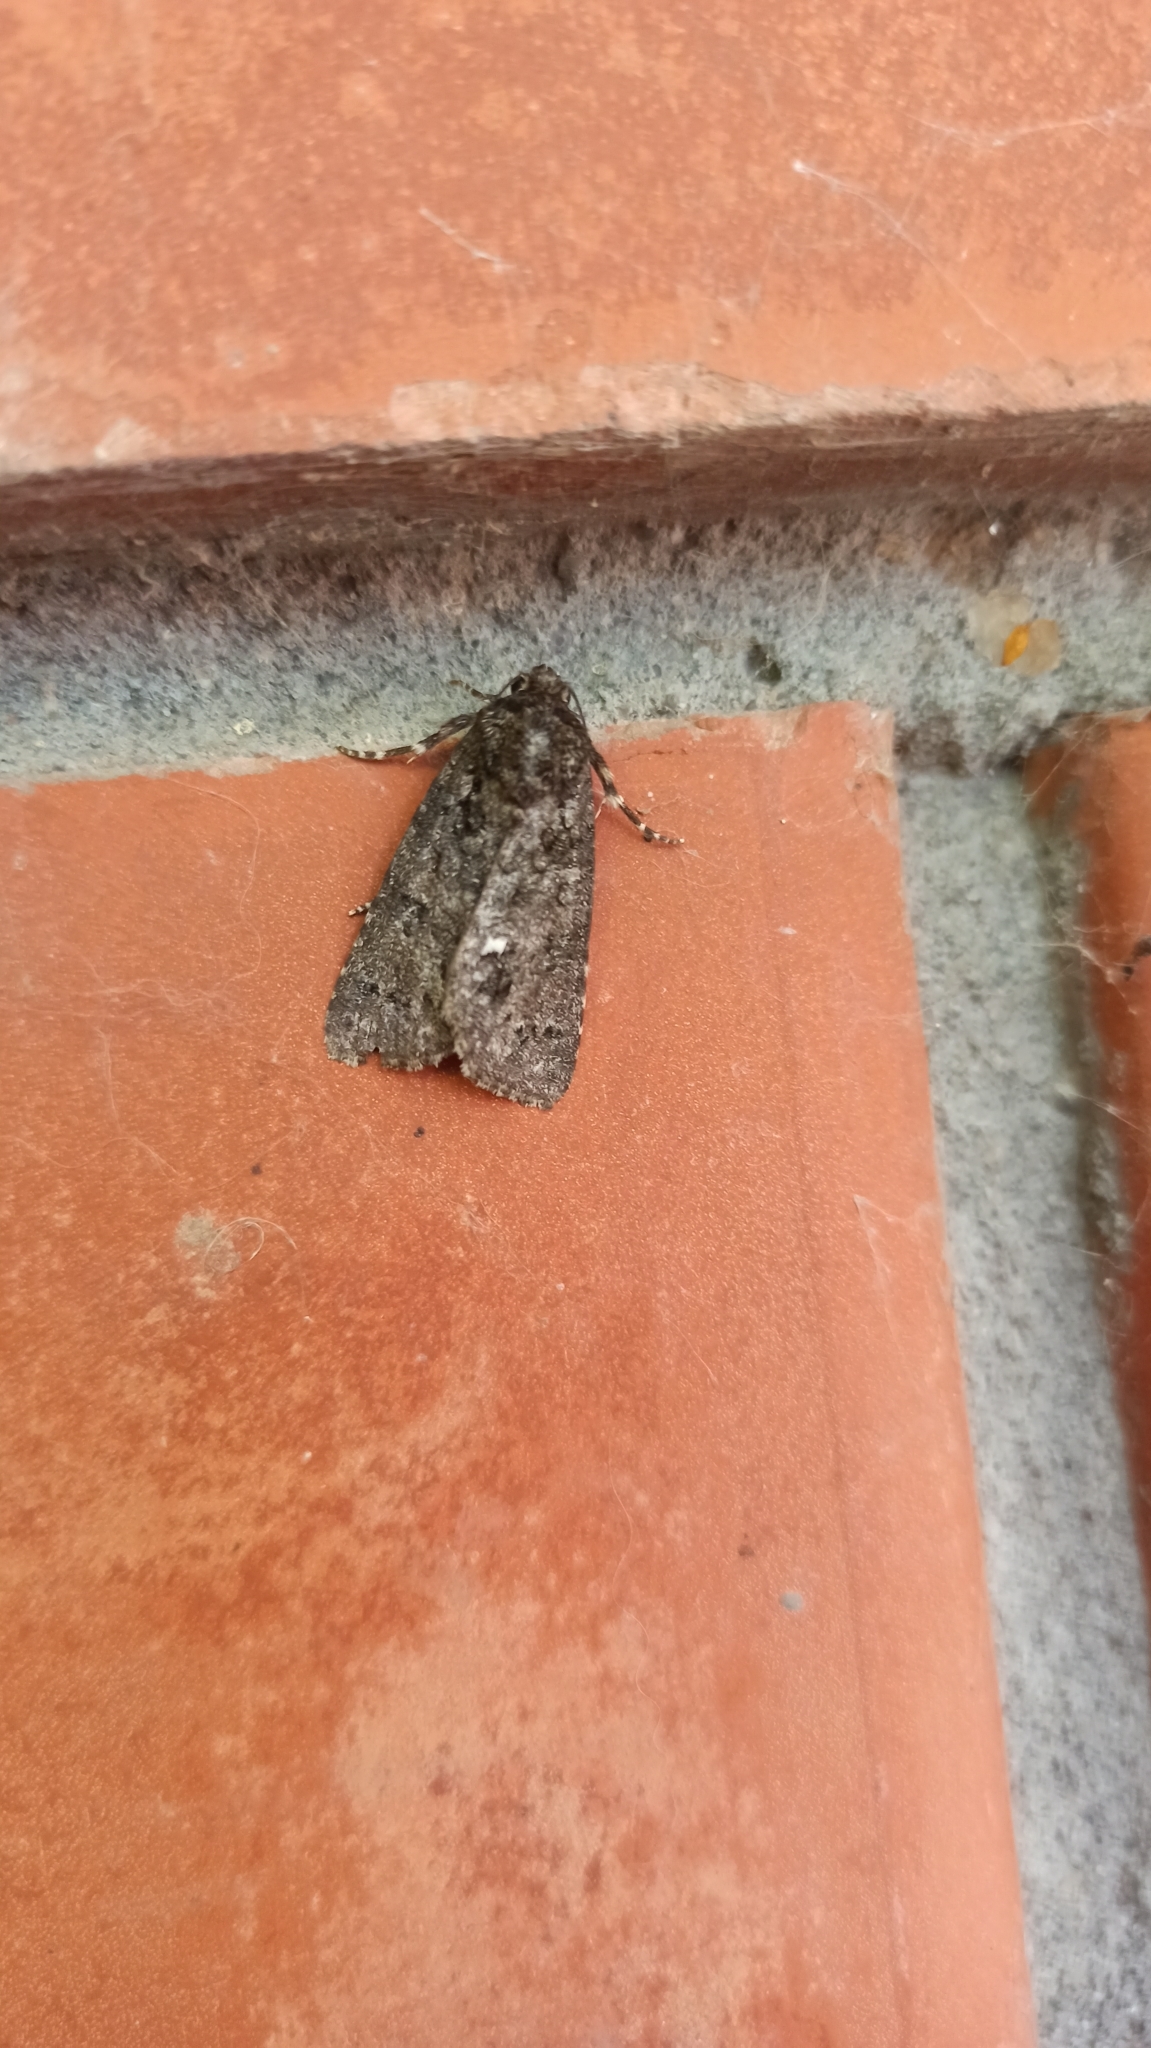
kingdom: Animalia
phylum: Arthropoda
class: Insecta
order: Lepidoptera
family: Noctuidae
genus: Acronicta
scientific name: Acronicta rumicis
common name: Knot grass
